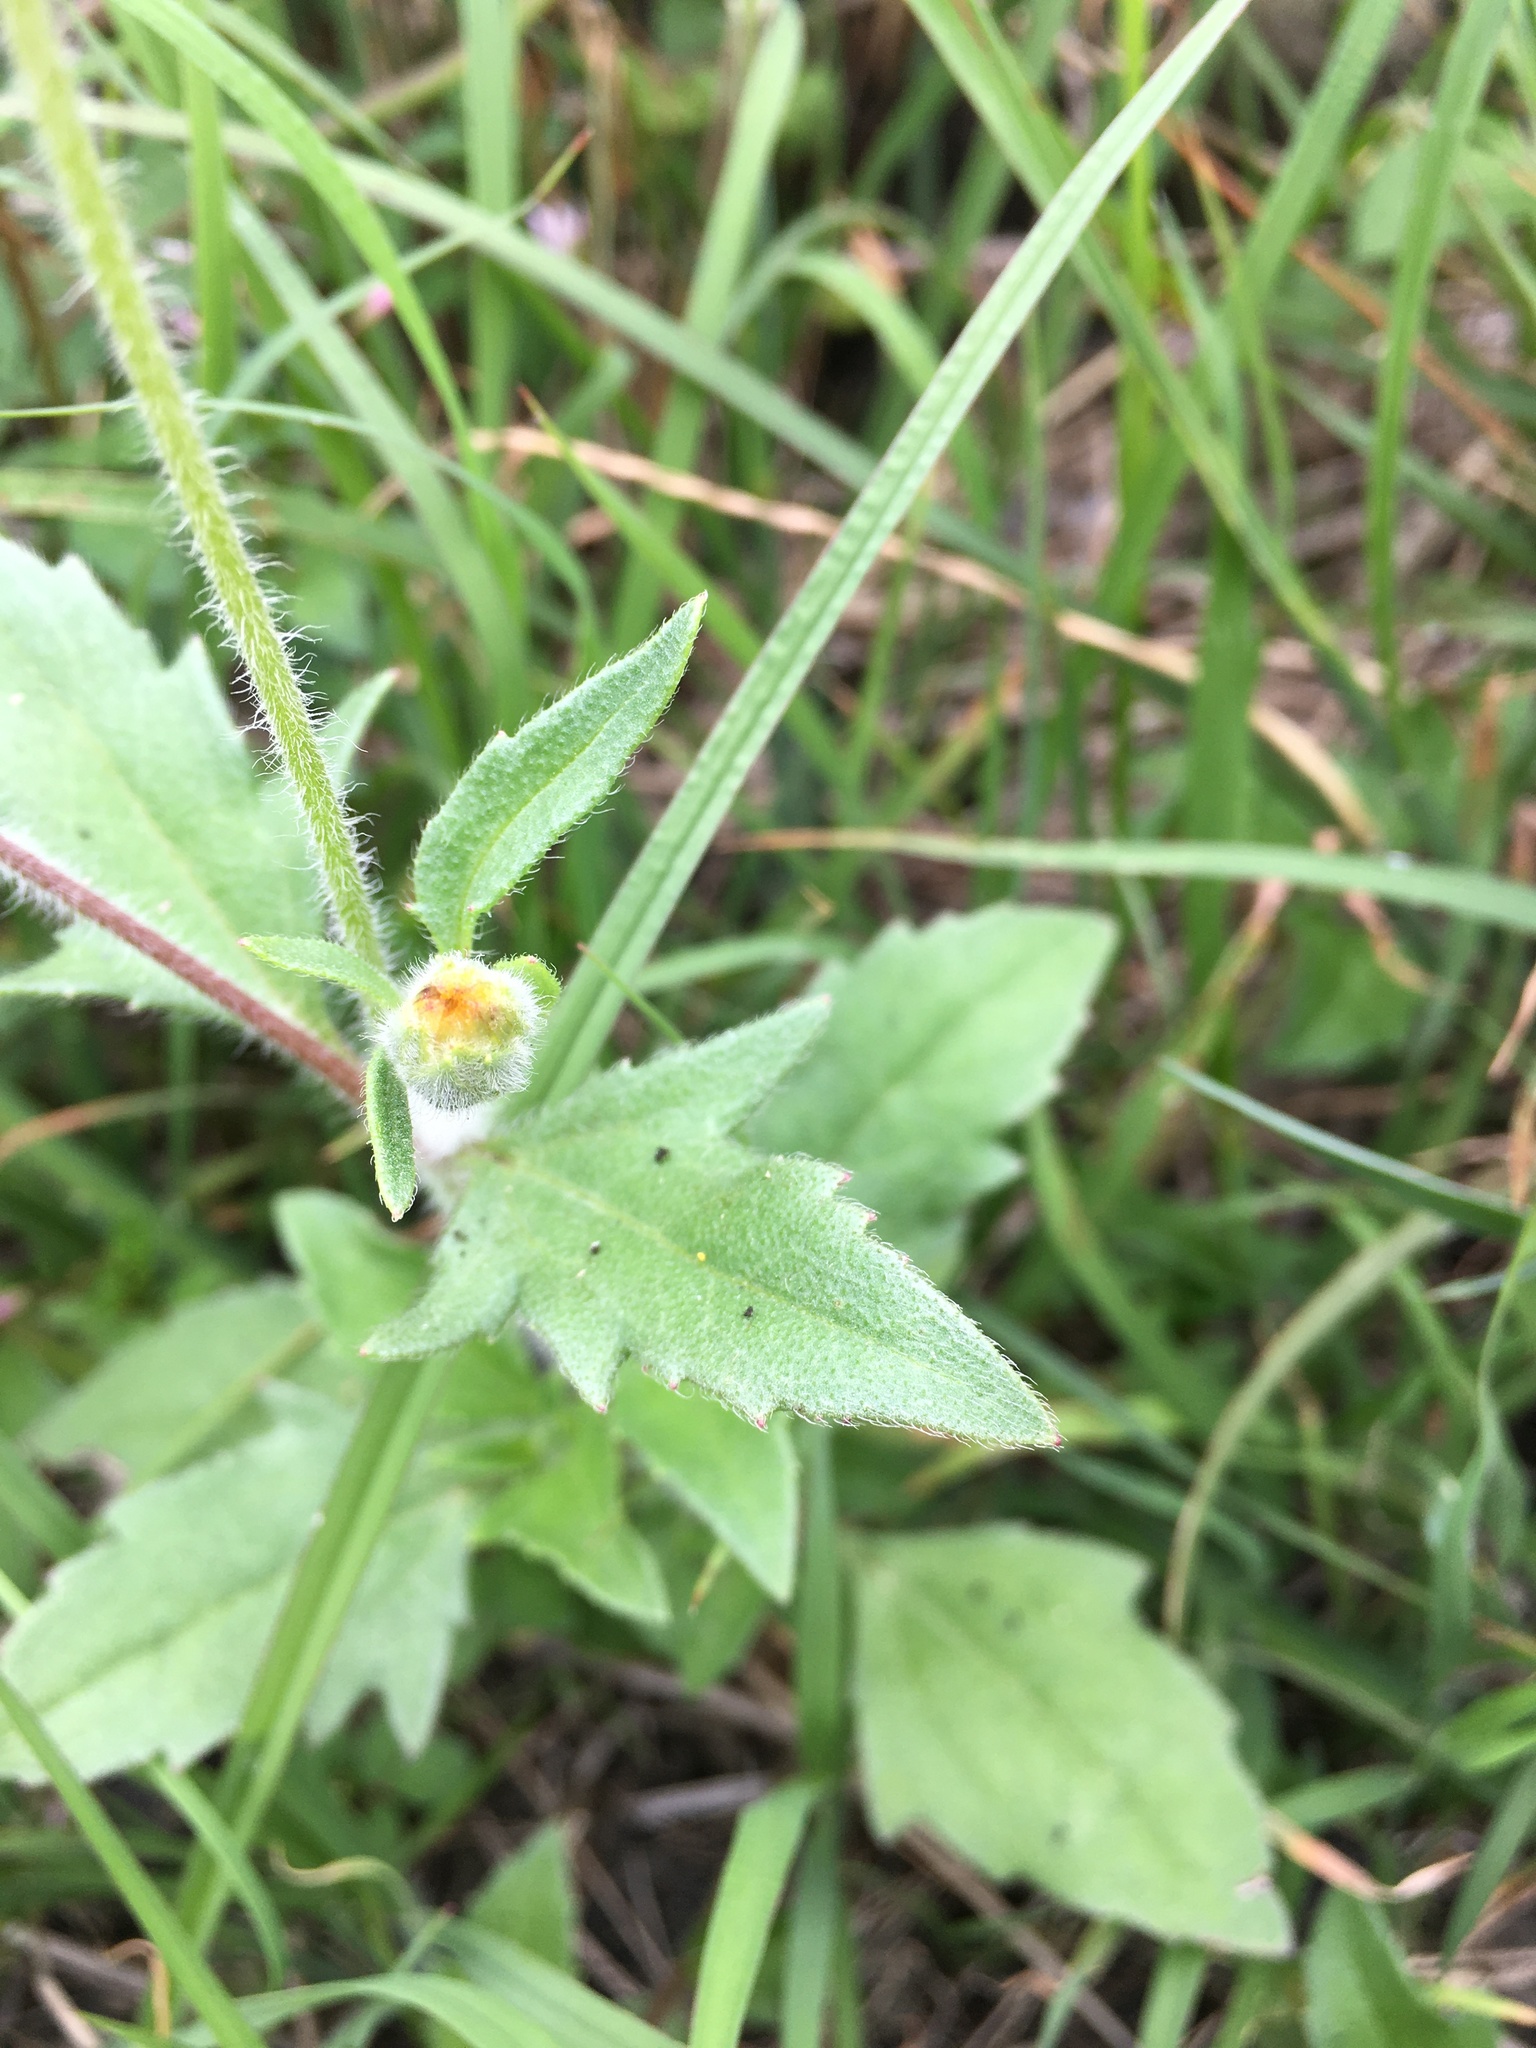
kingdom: Plantae
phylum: Tracheophyta
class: Magnoliopsida
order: Asterales
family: Asteraceae
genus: Tridax
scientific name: Tridax procumbens
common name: Coatbuttons
